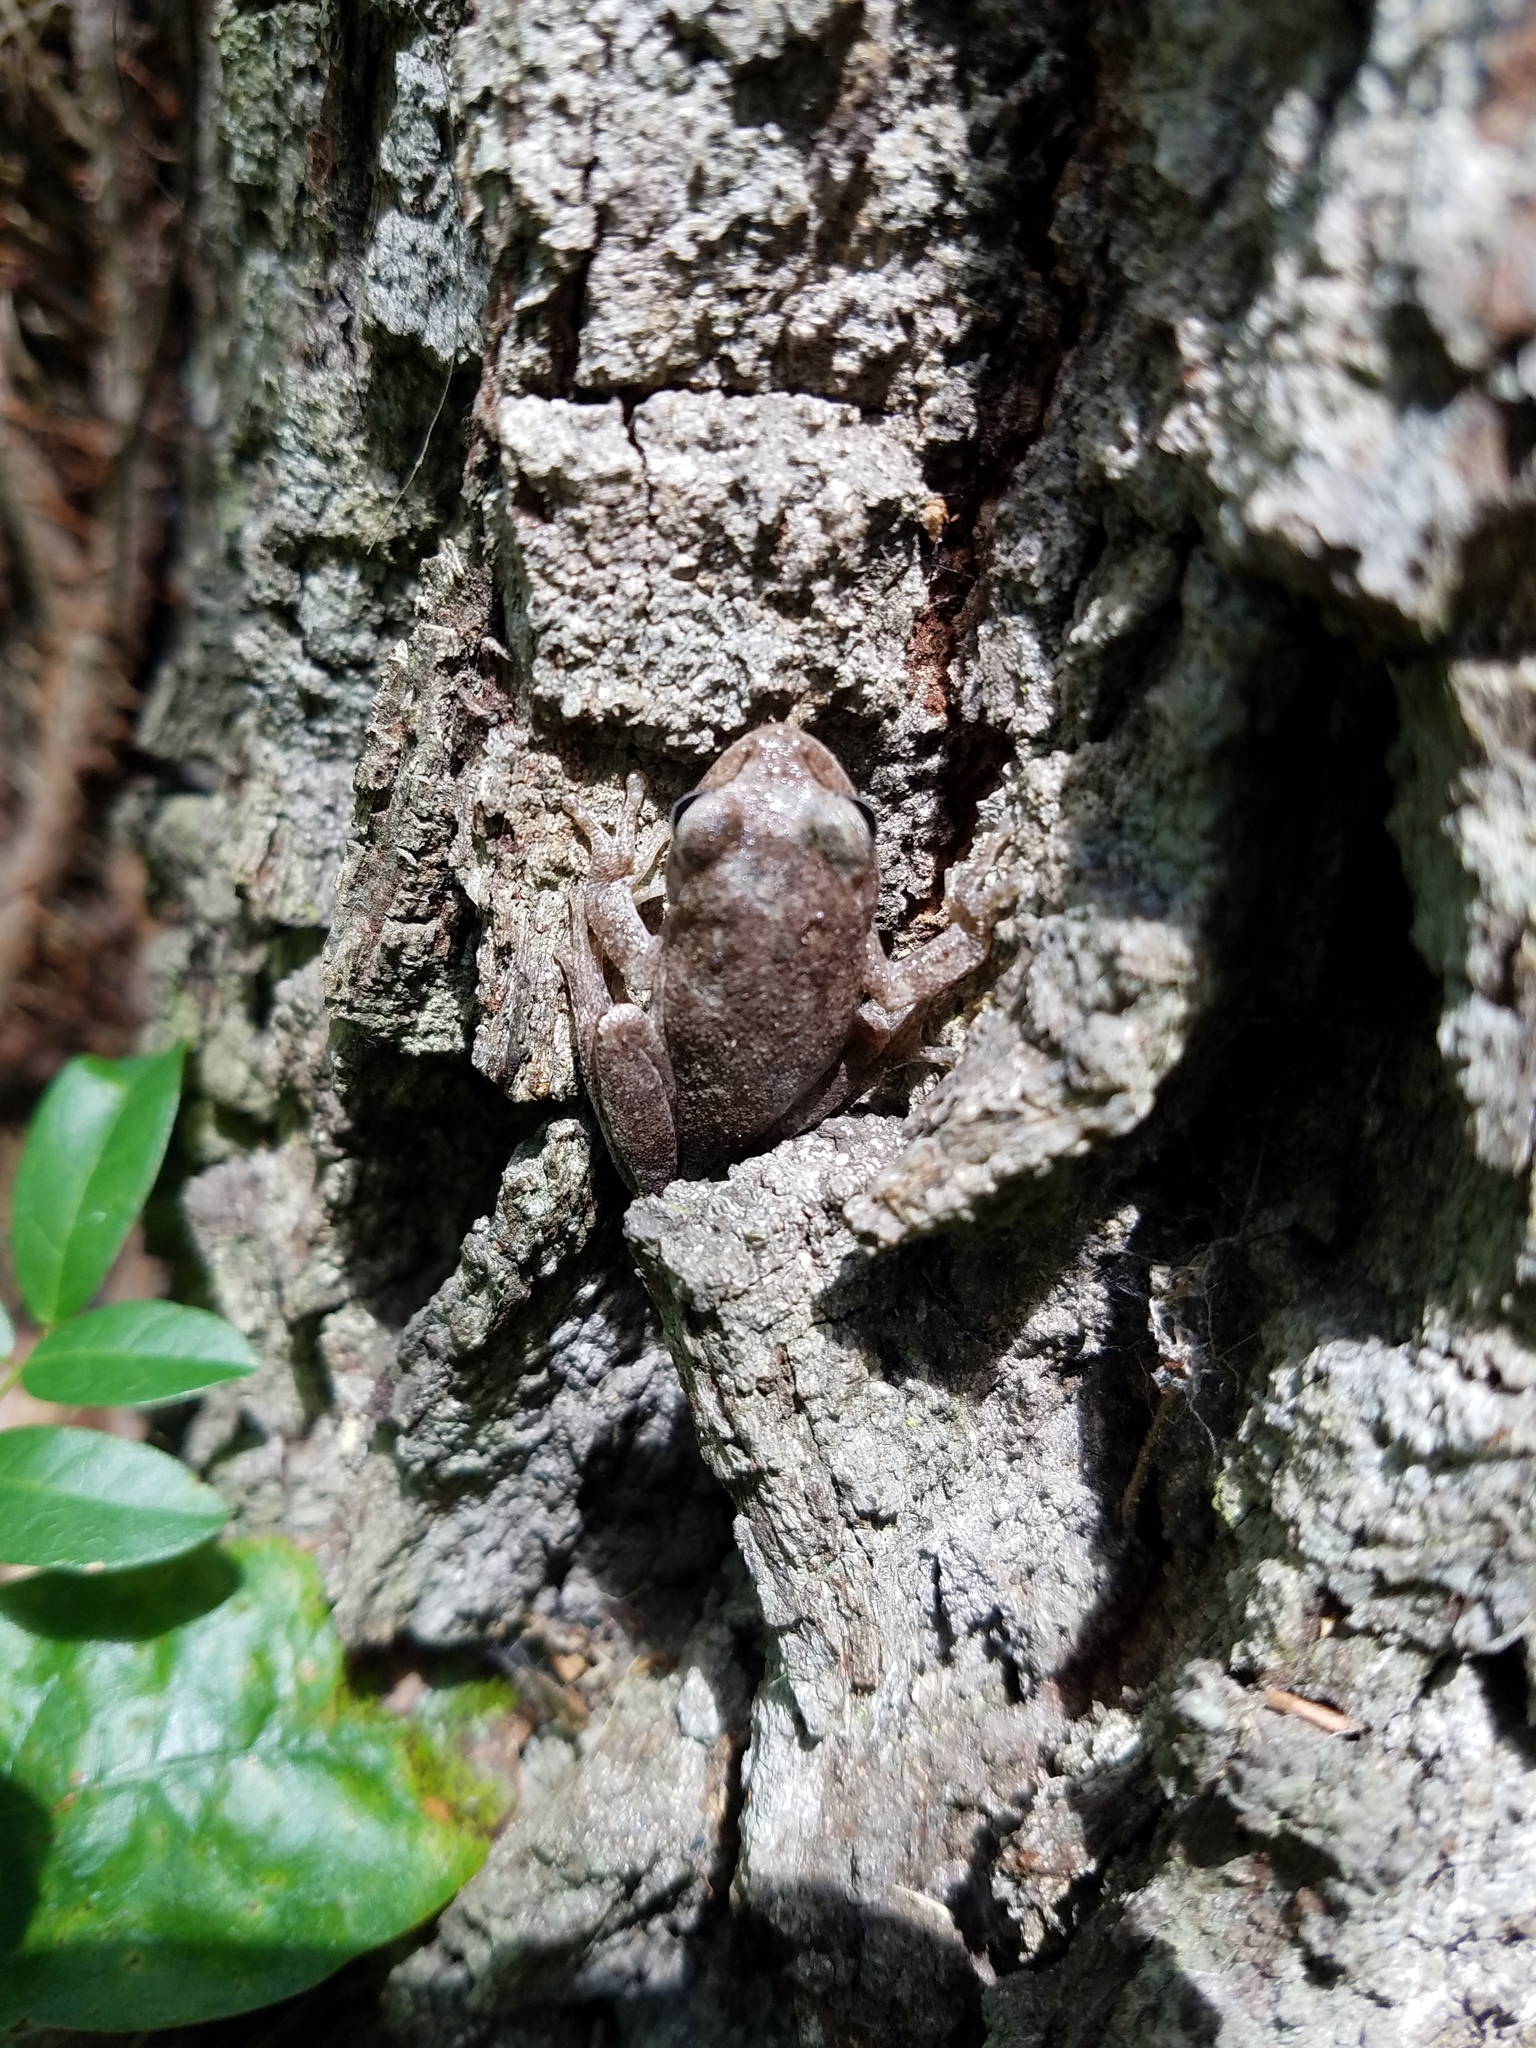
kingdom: Animalia
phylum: Chordata
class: Amphibia
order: Anura
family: Hylidae
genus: Hyla
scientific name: Hyla femoralis
